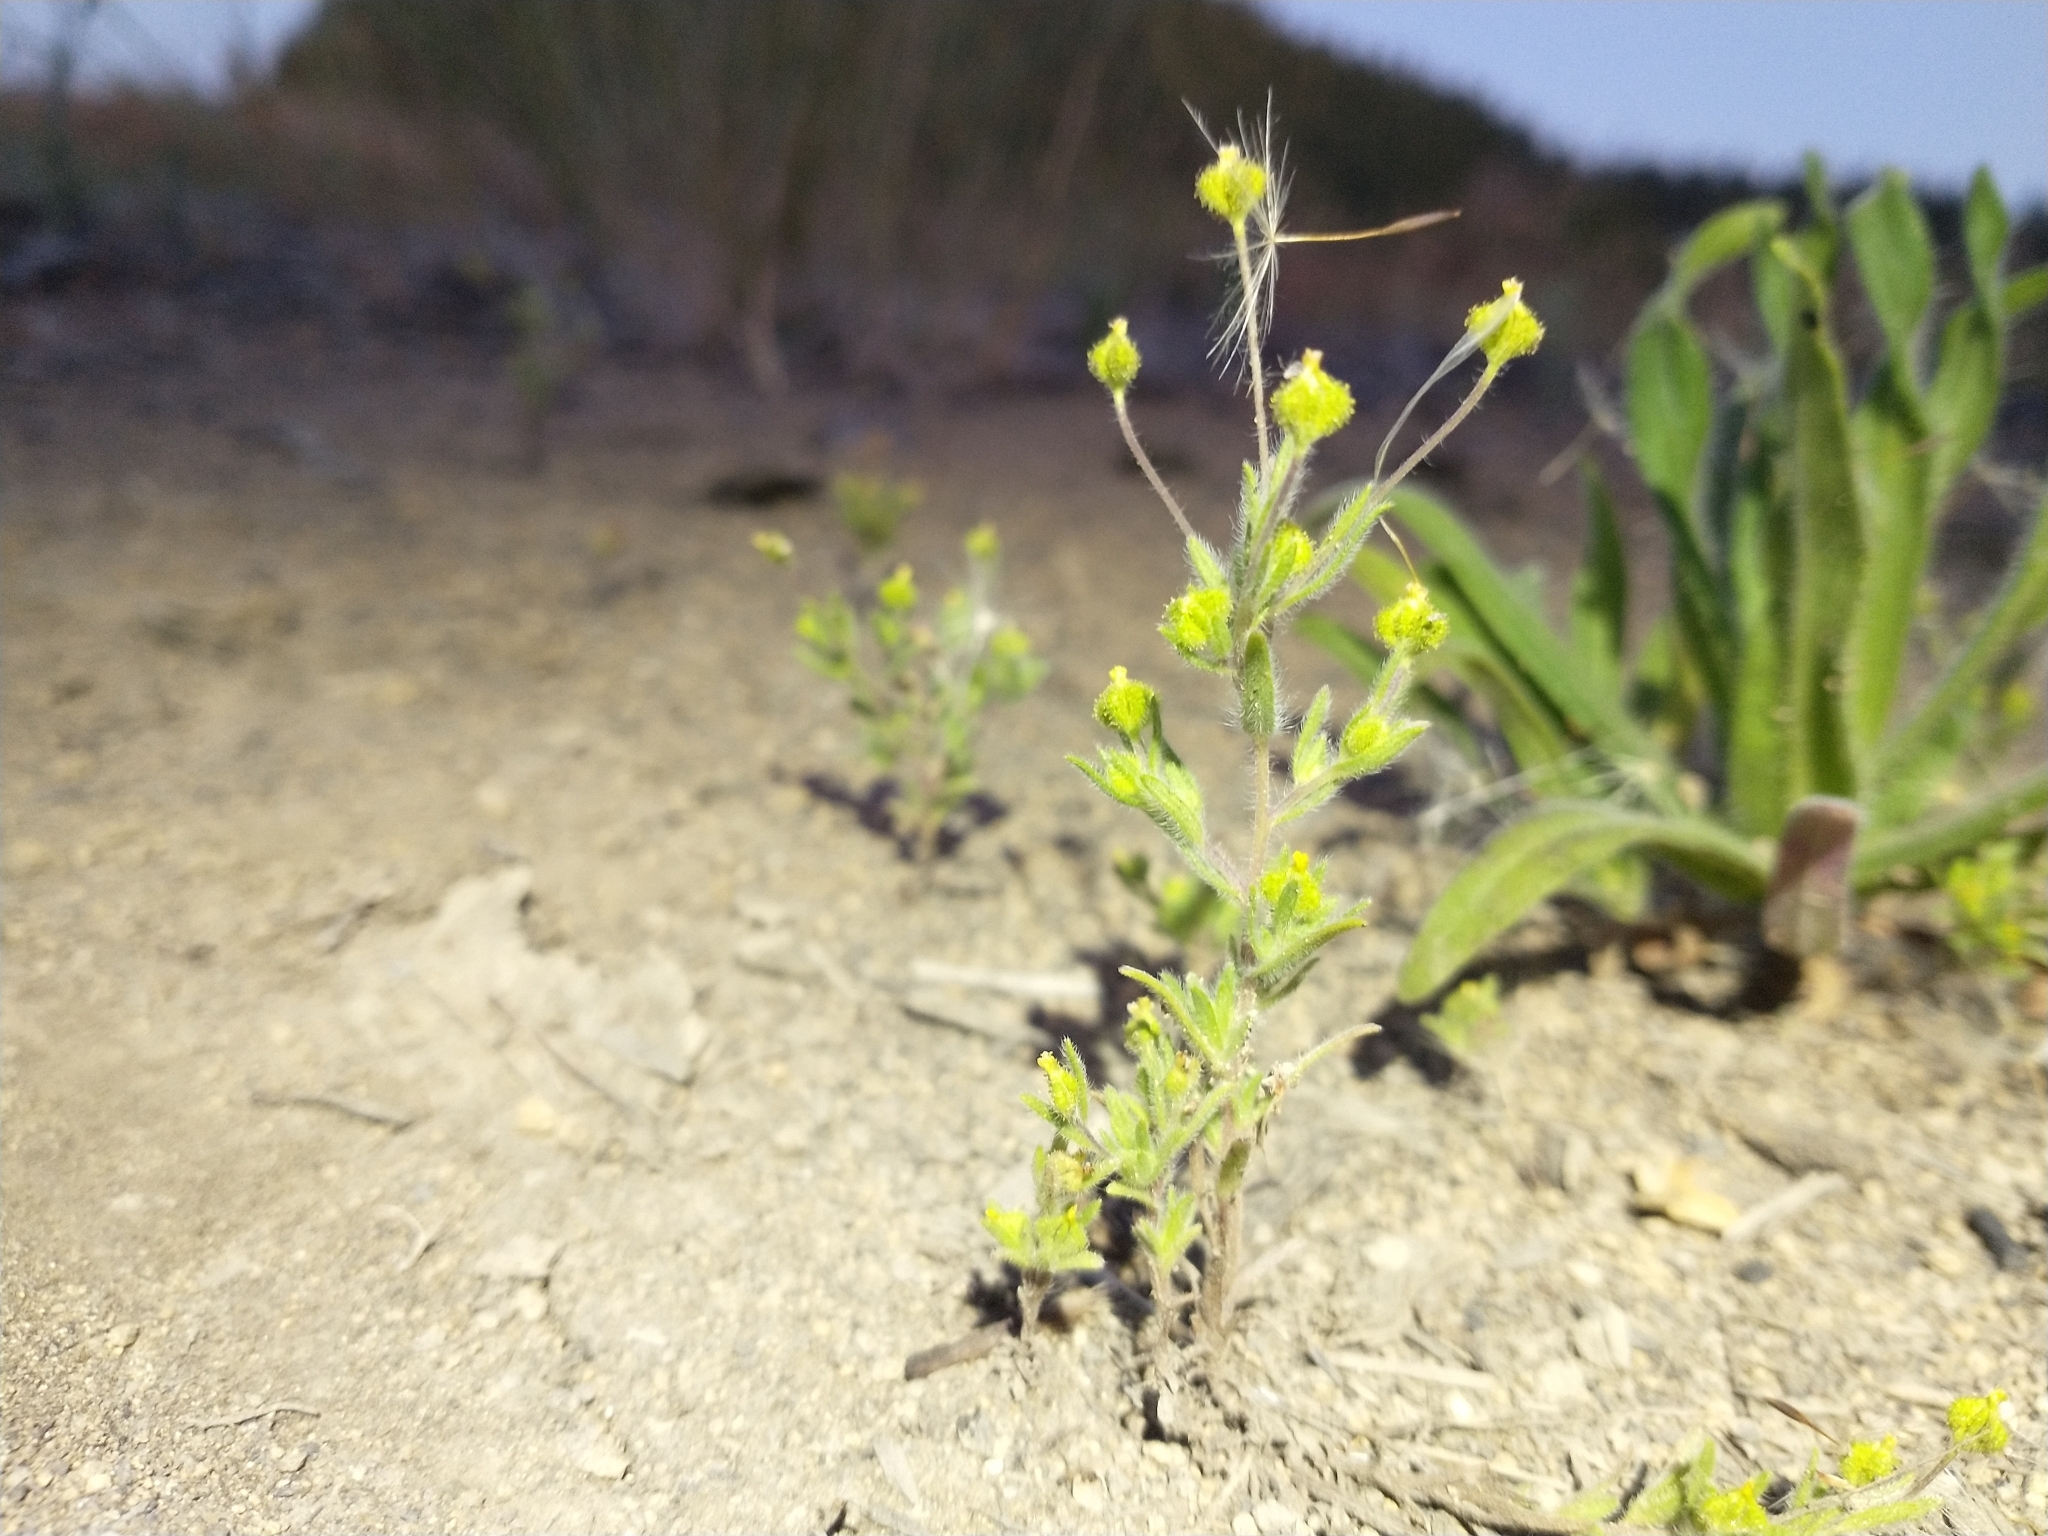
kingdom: Plantae
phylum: Tracheophyta
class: Magnoliopsida
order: Asterales
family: Asteraceae
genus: Madia
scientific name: Madia exigua
